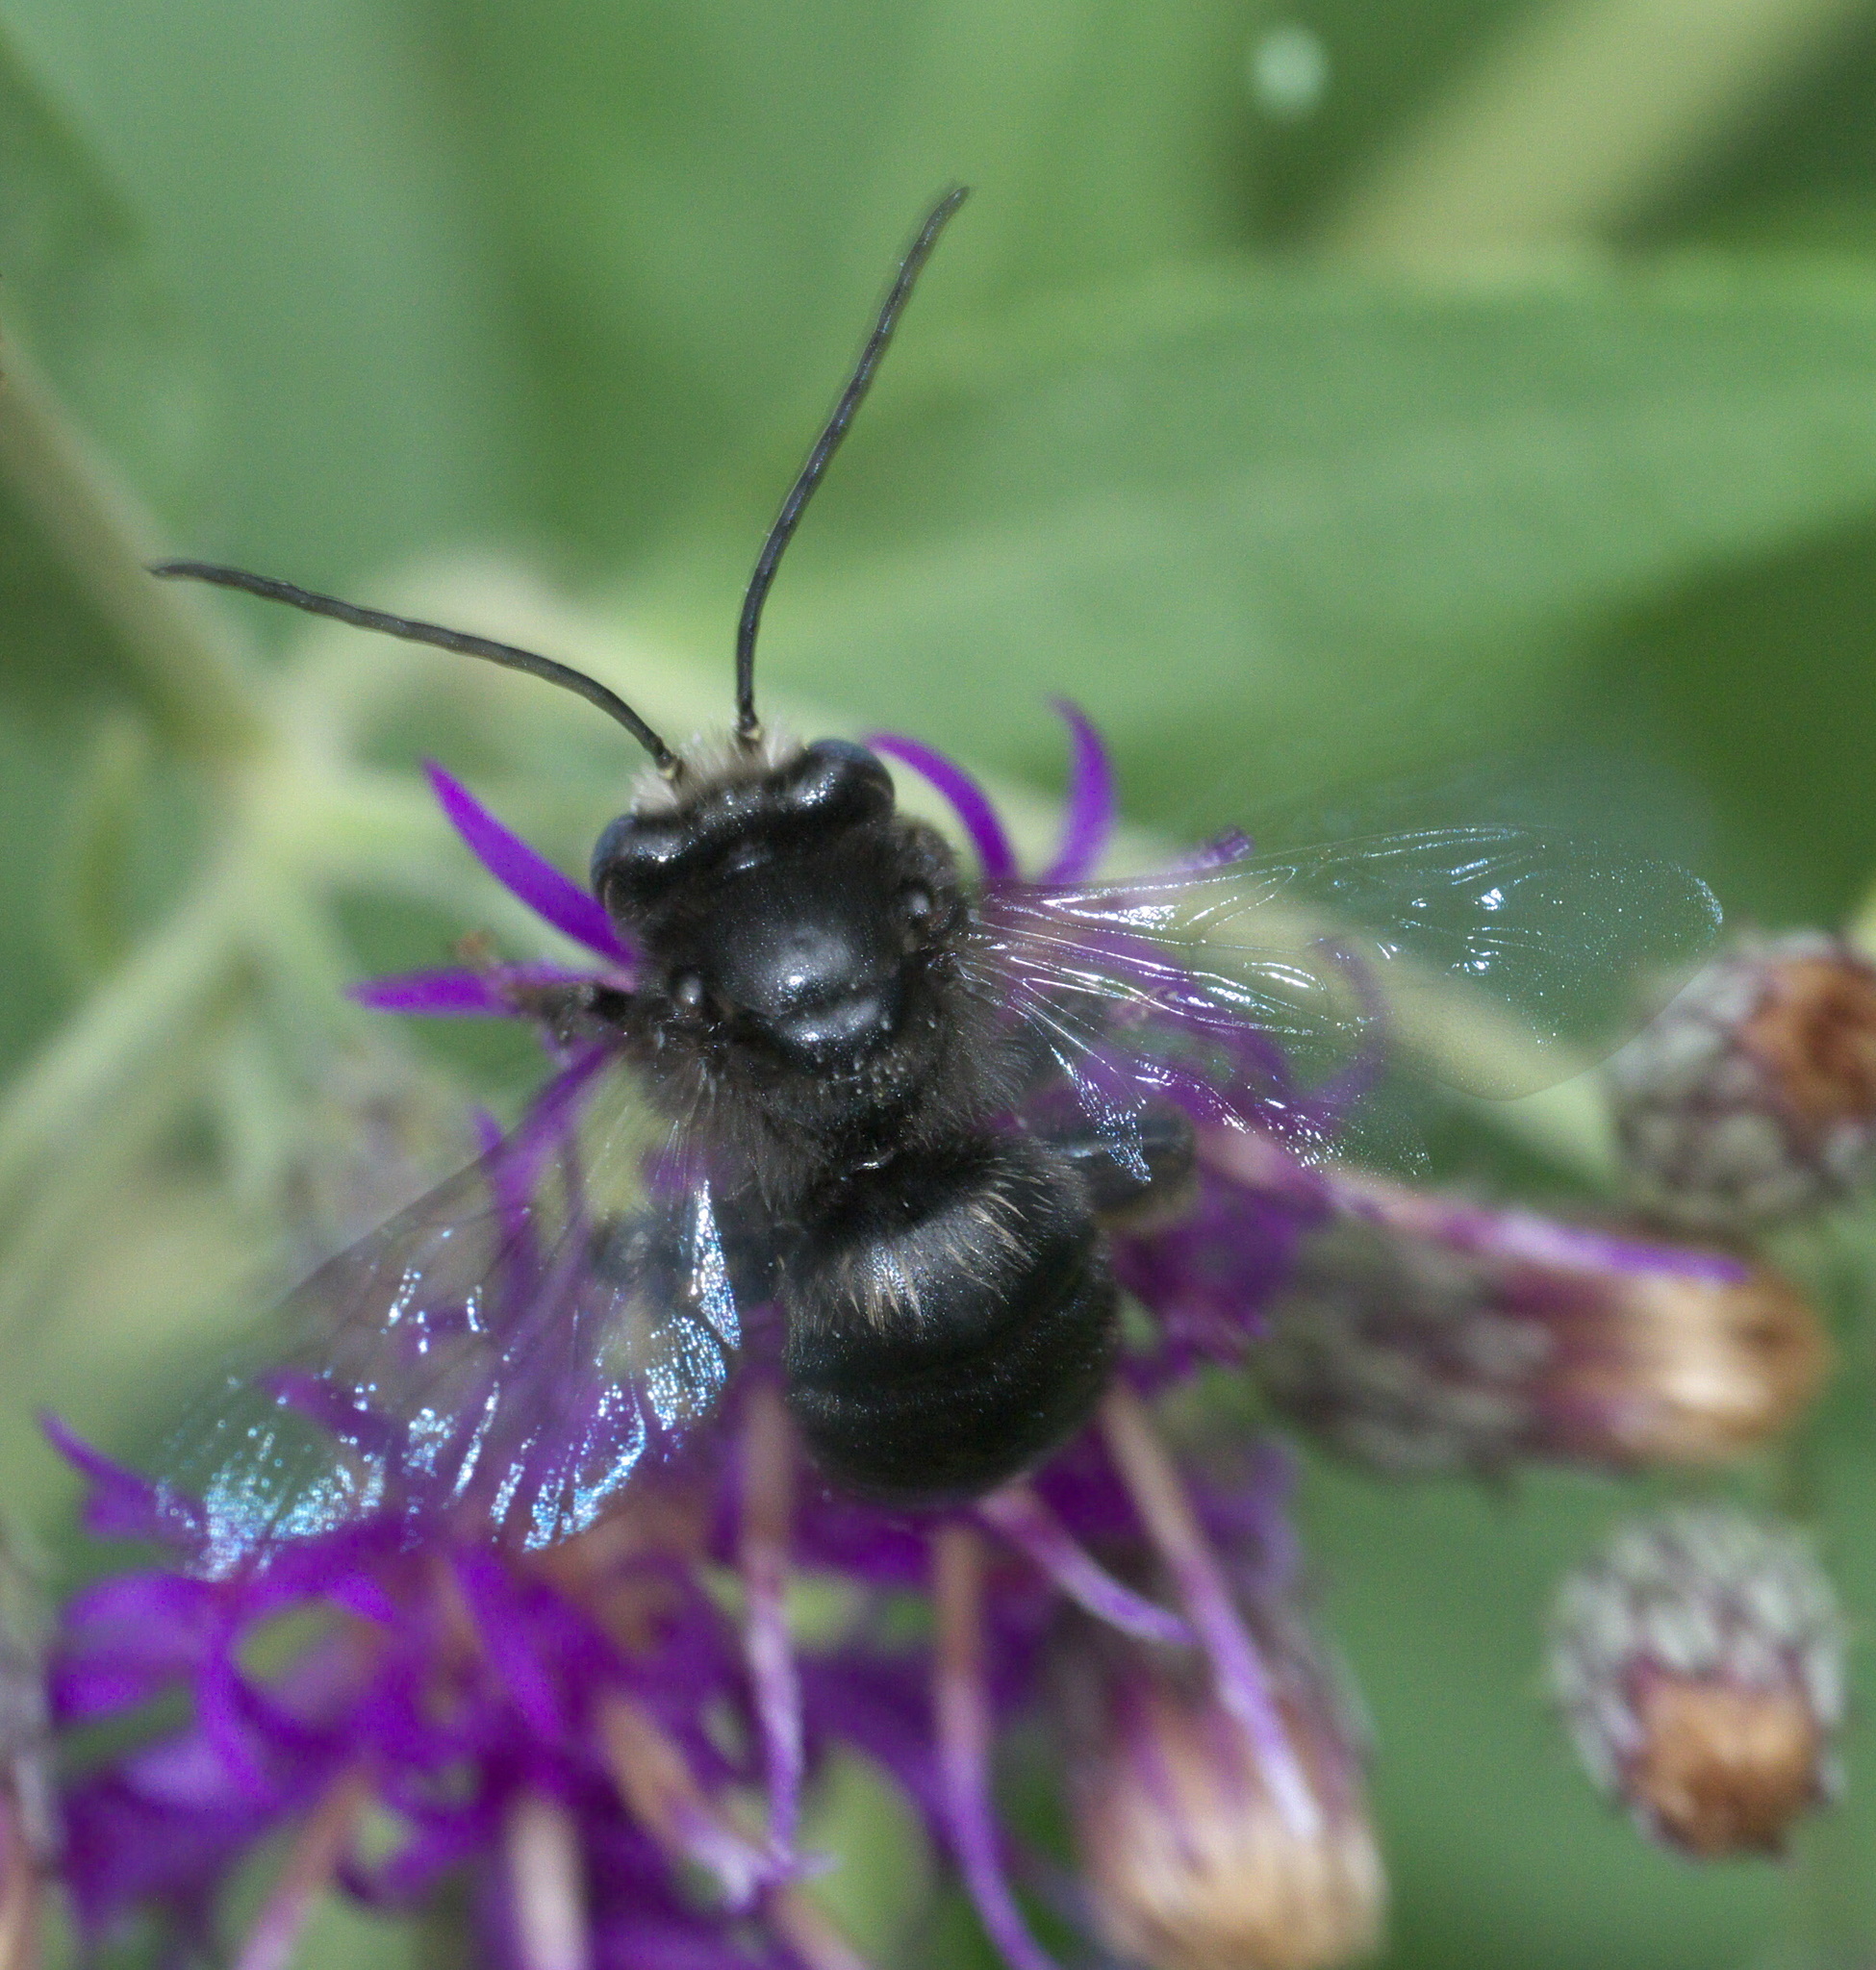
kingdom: Animalia
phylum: Arthropoda
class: Insecta
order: Hymenoptera
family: Apidae
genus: Melissodes
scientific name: Melissodes bimaculatus
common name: Two-spotted long-horned bee
